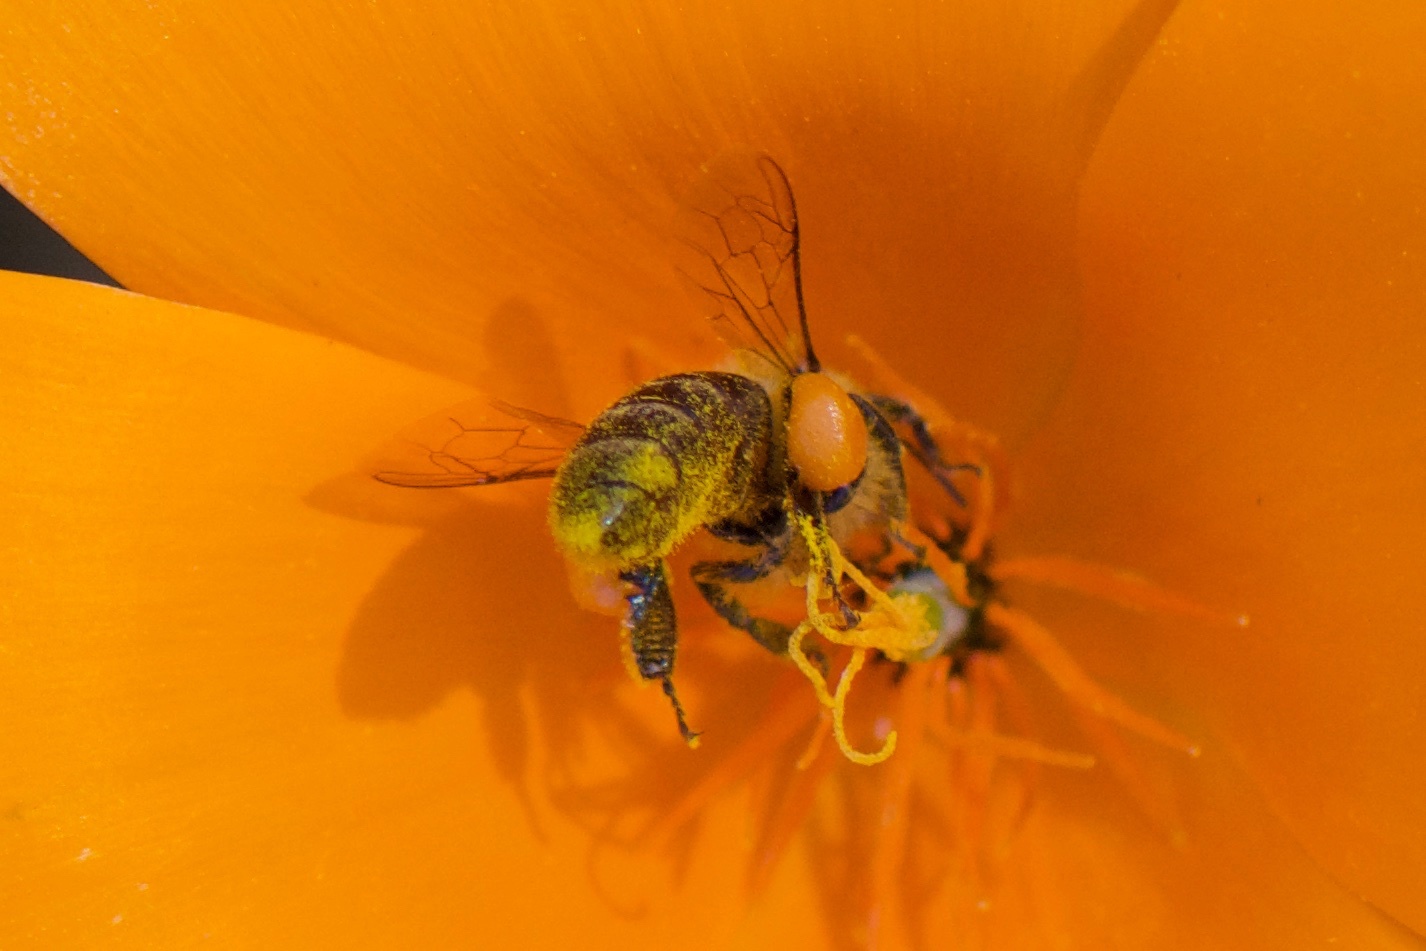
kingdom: Animalia
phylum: Arthropoda
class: Insecta
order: Hymenoptera
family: Apidae
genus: Apis
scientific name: Apis mellifera
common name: Honey bee
